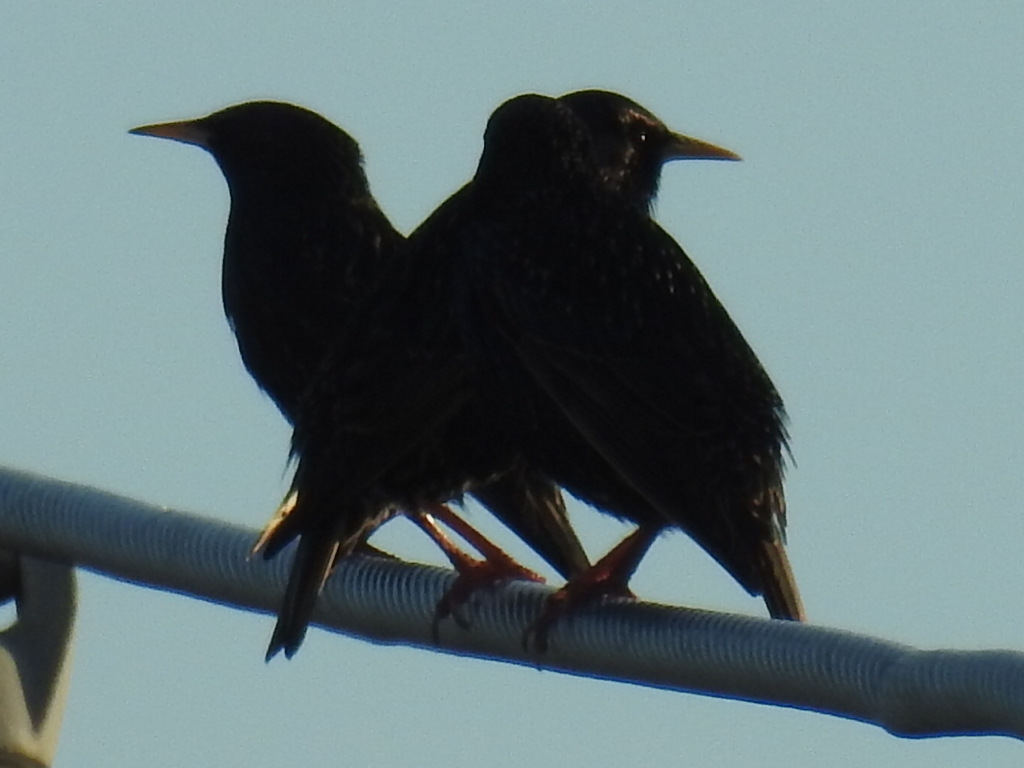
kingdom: Animalia
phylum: Chordata
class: Aves
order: Passeriformes
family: Sturnidae
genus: Sturnus
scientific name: Sturnus vulgaris
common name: Common starling
